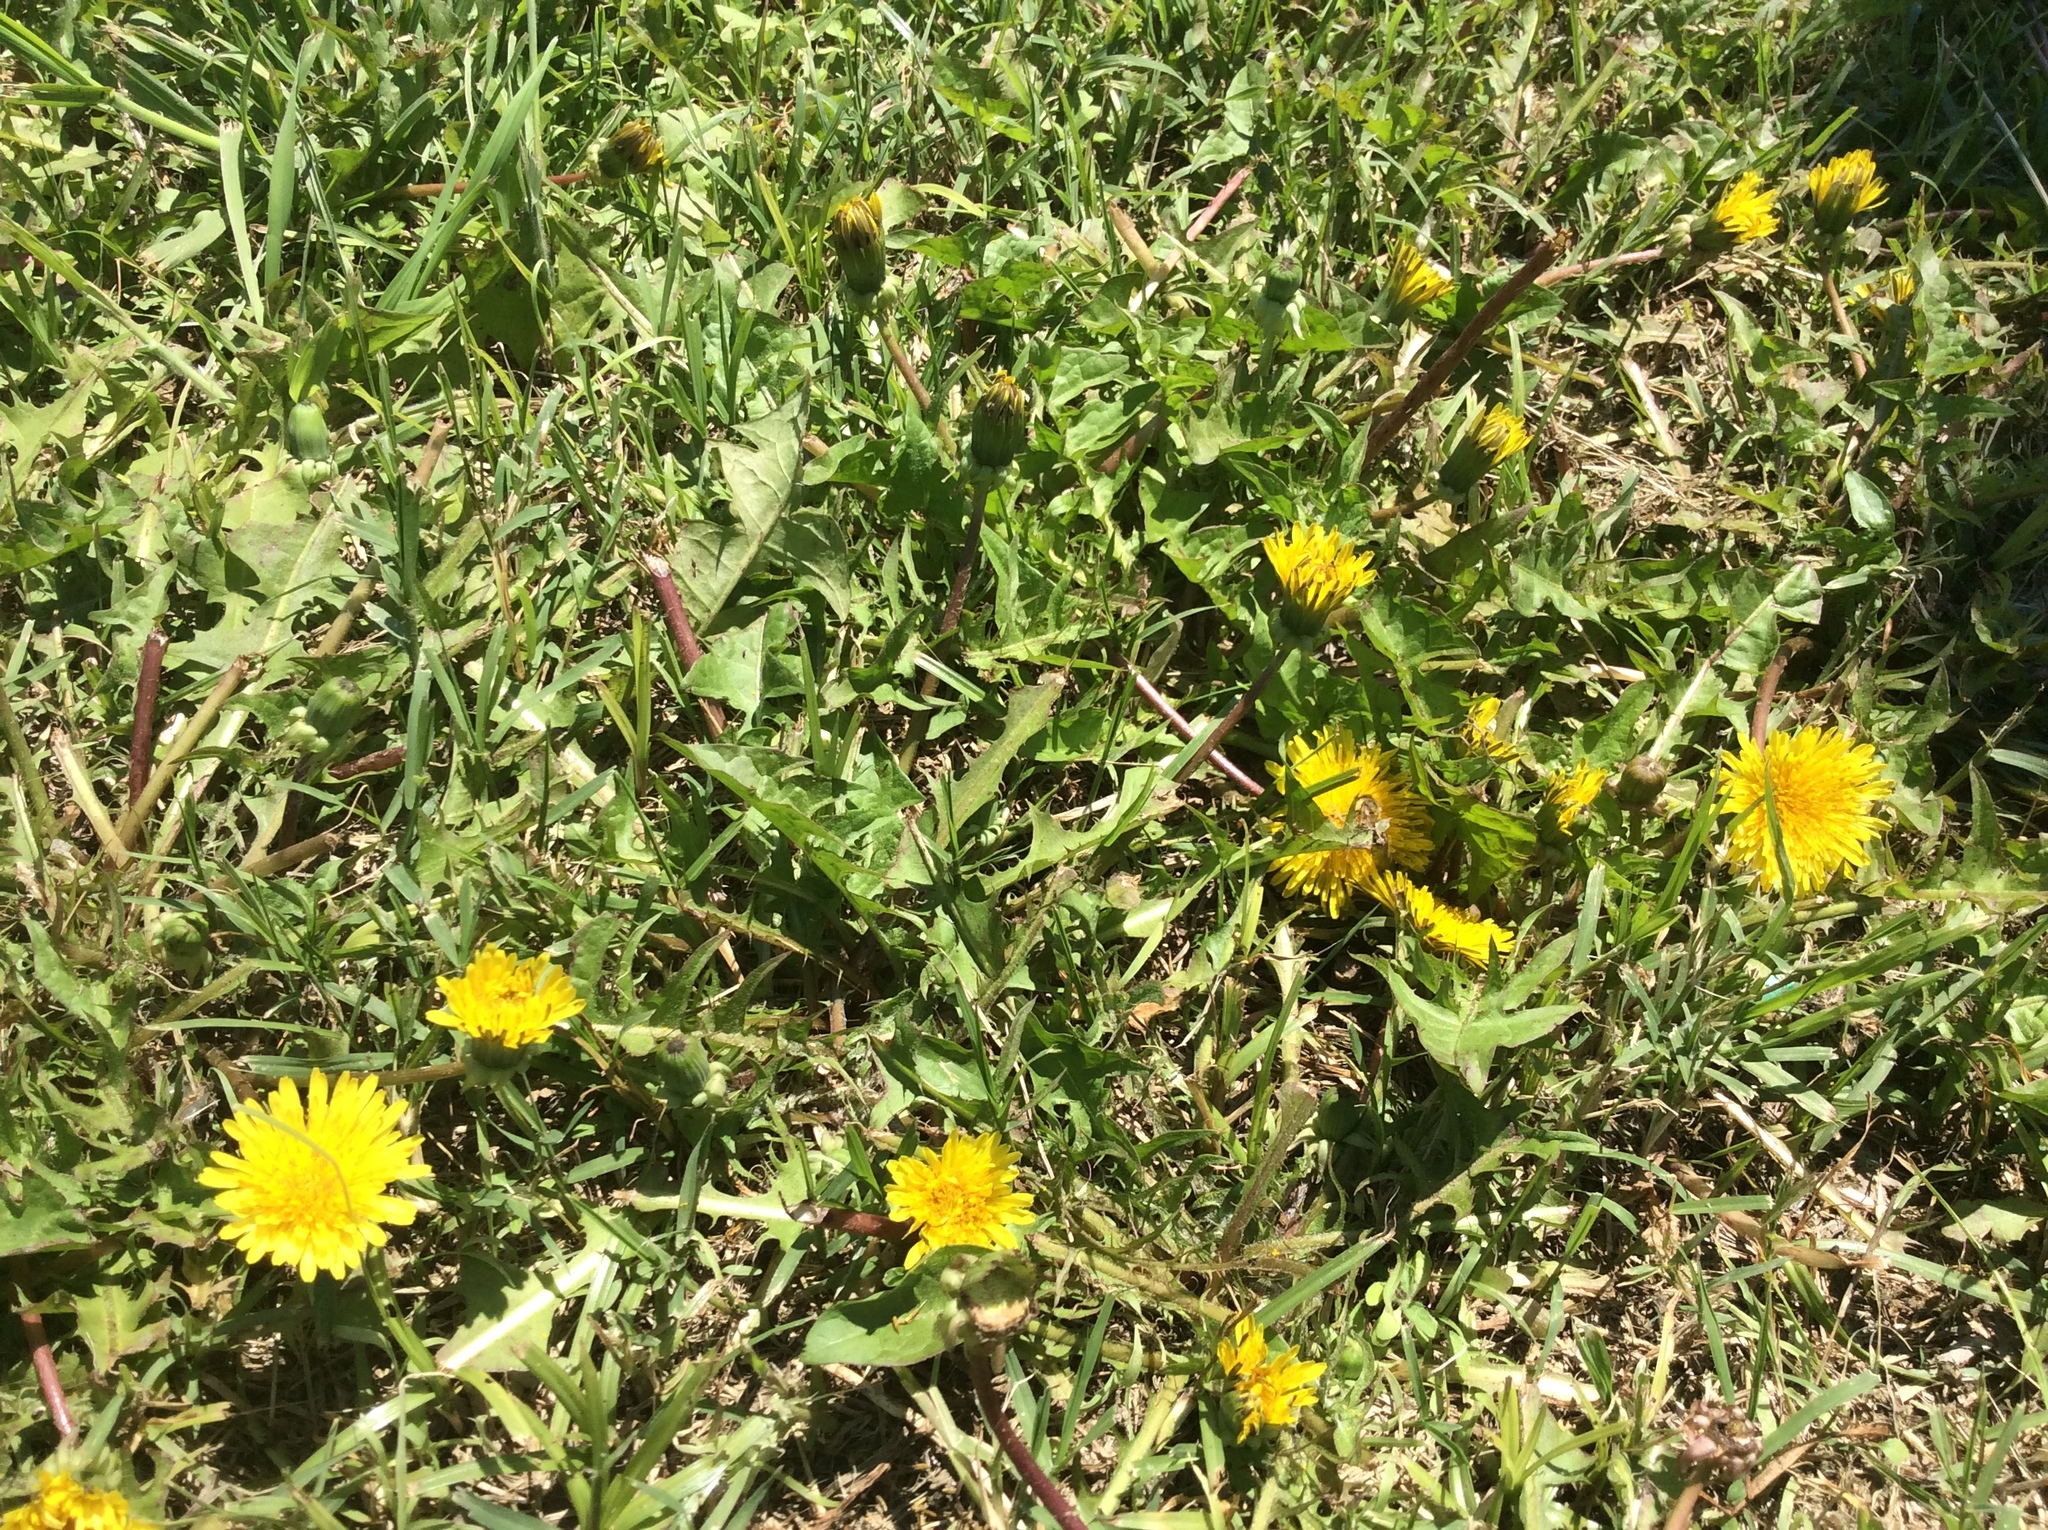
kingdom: Plantae
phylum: Tracheophyta
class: Magnoliopsida
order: Asterales
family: Asteraceae
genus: Taraxacum
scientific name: Taraxacum officinale
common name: Common dandelion
